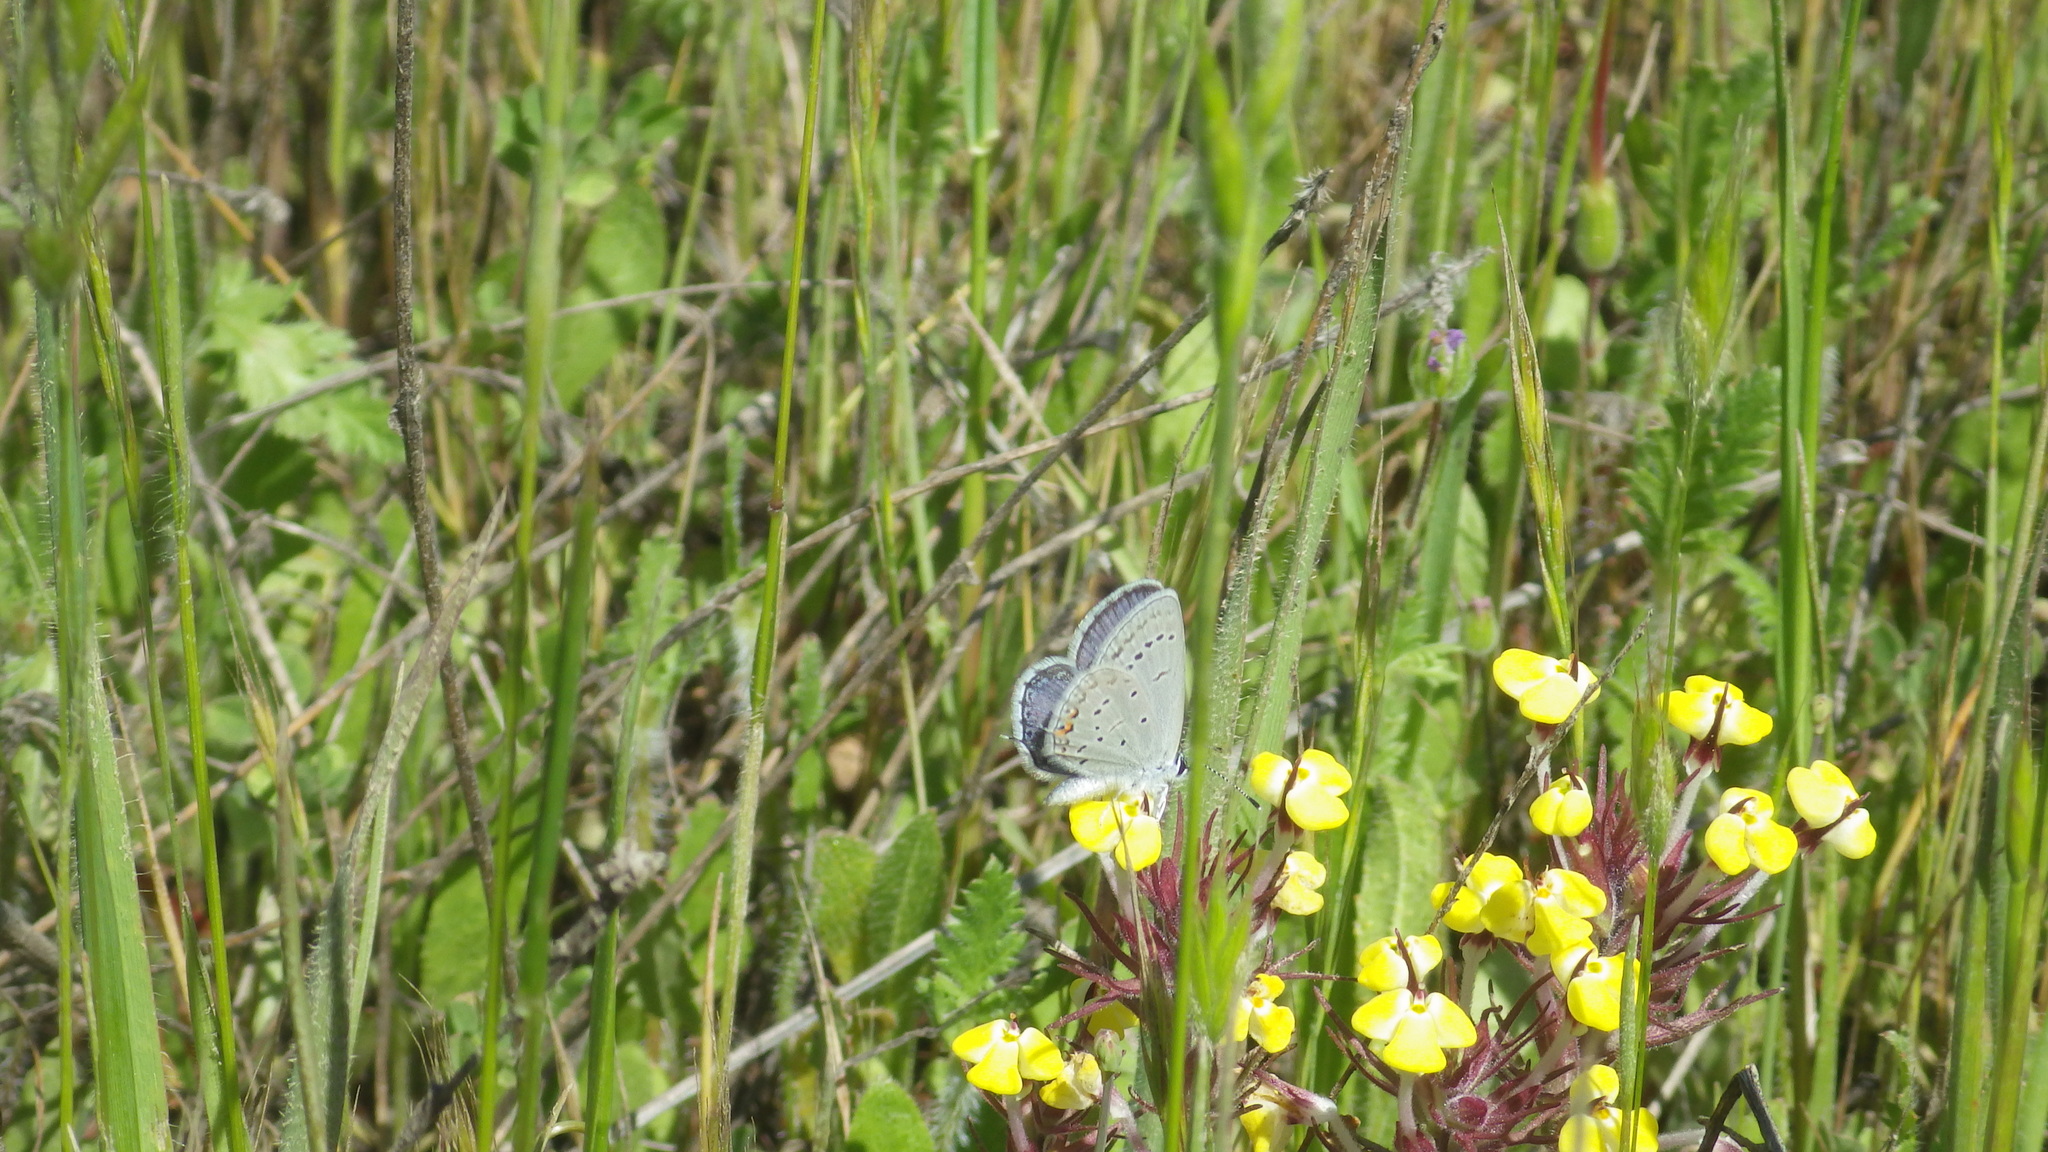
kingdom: Animalia
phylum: Arthropoda
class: Insecta
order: Lepidoptera
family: Lycaenidae
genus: Elkalyce
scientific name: Elkalyce amyntula
